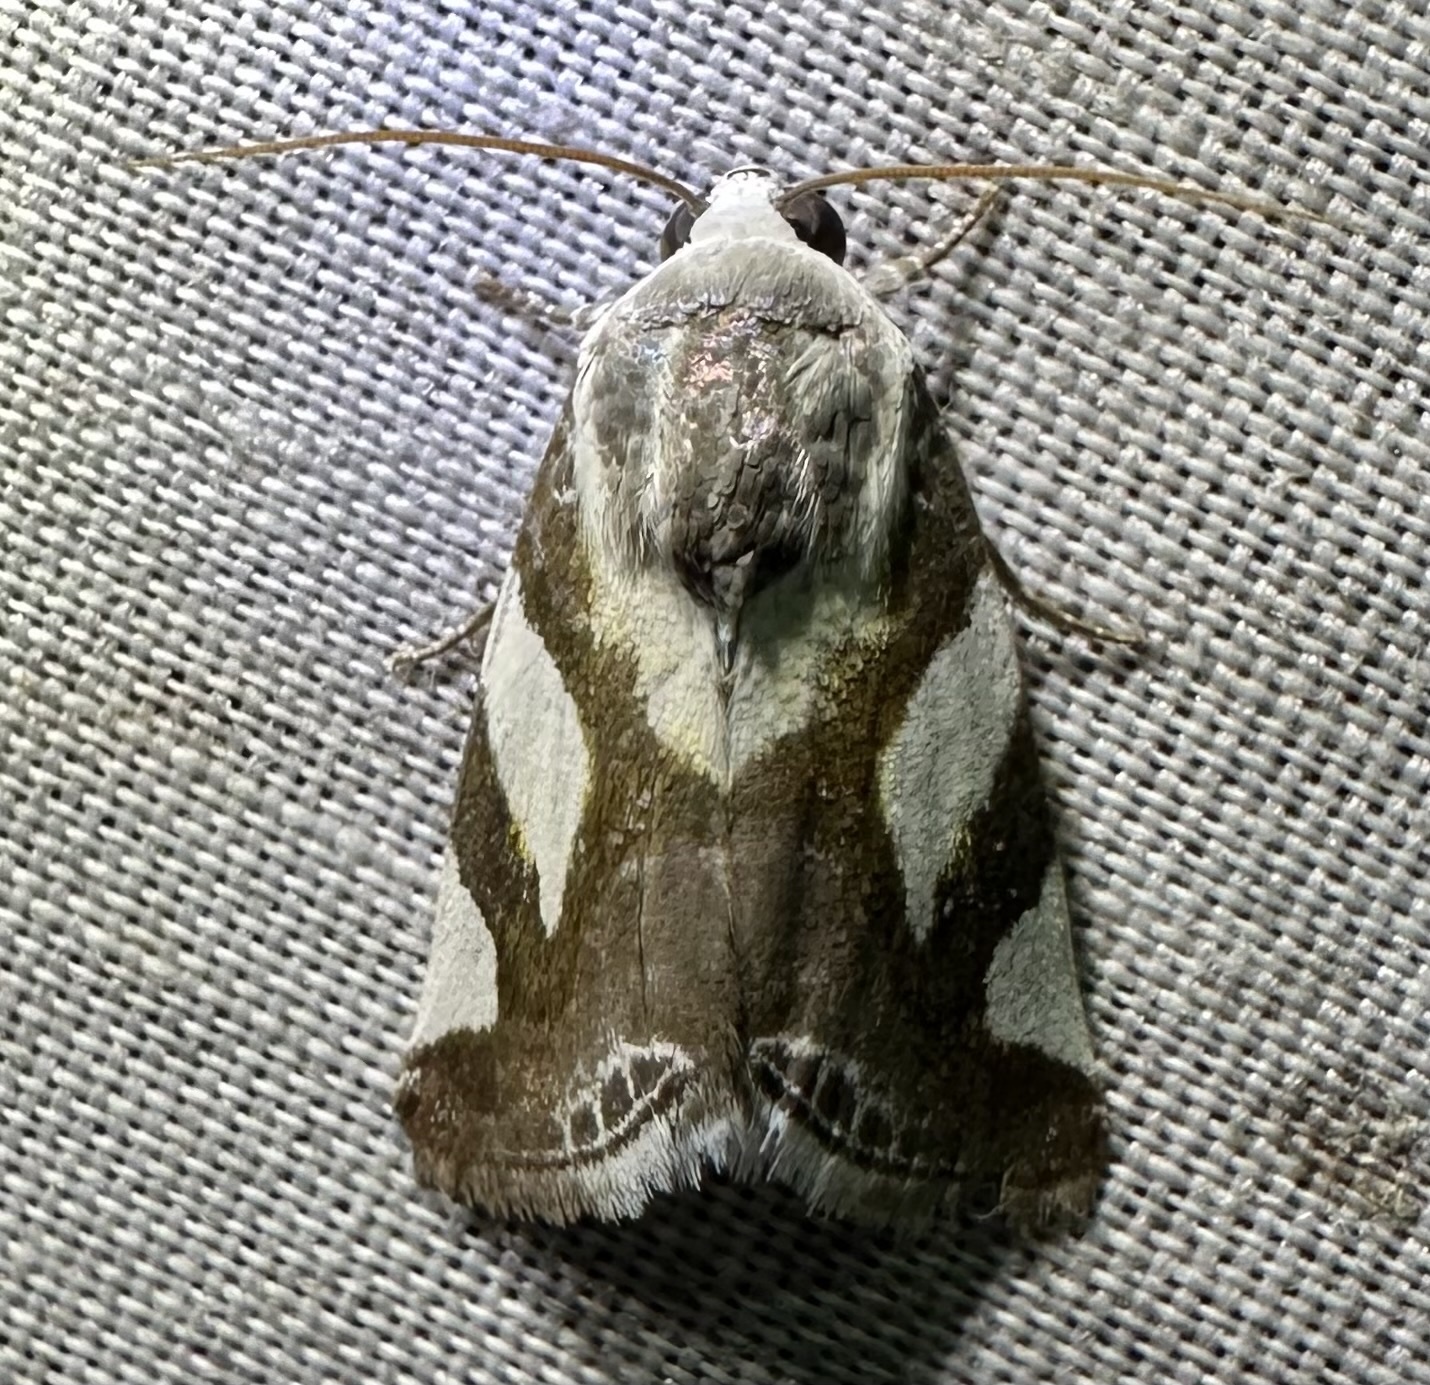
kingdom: Animalia
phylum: Arthropoda
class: Insecta
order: Lepidoptera
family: Noctuidae
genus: Acontia
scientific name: Acontia umbrigera
